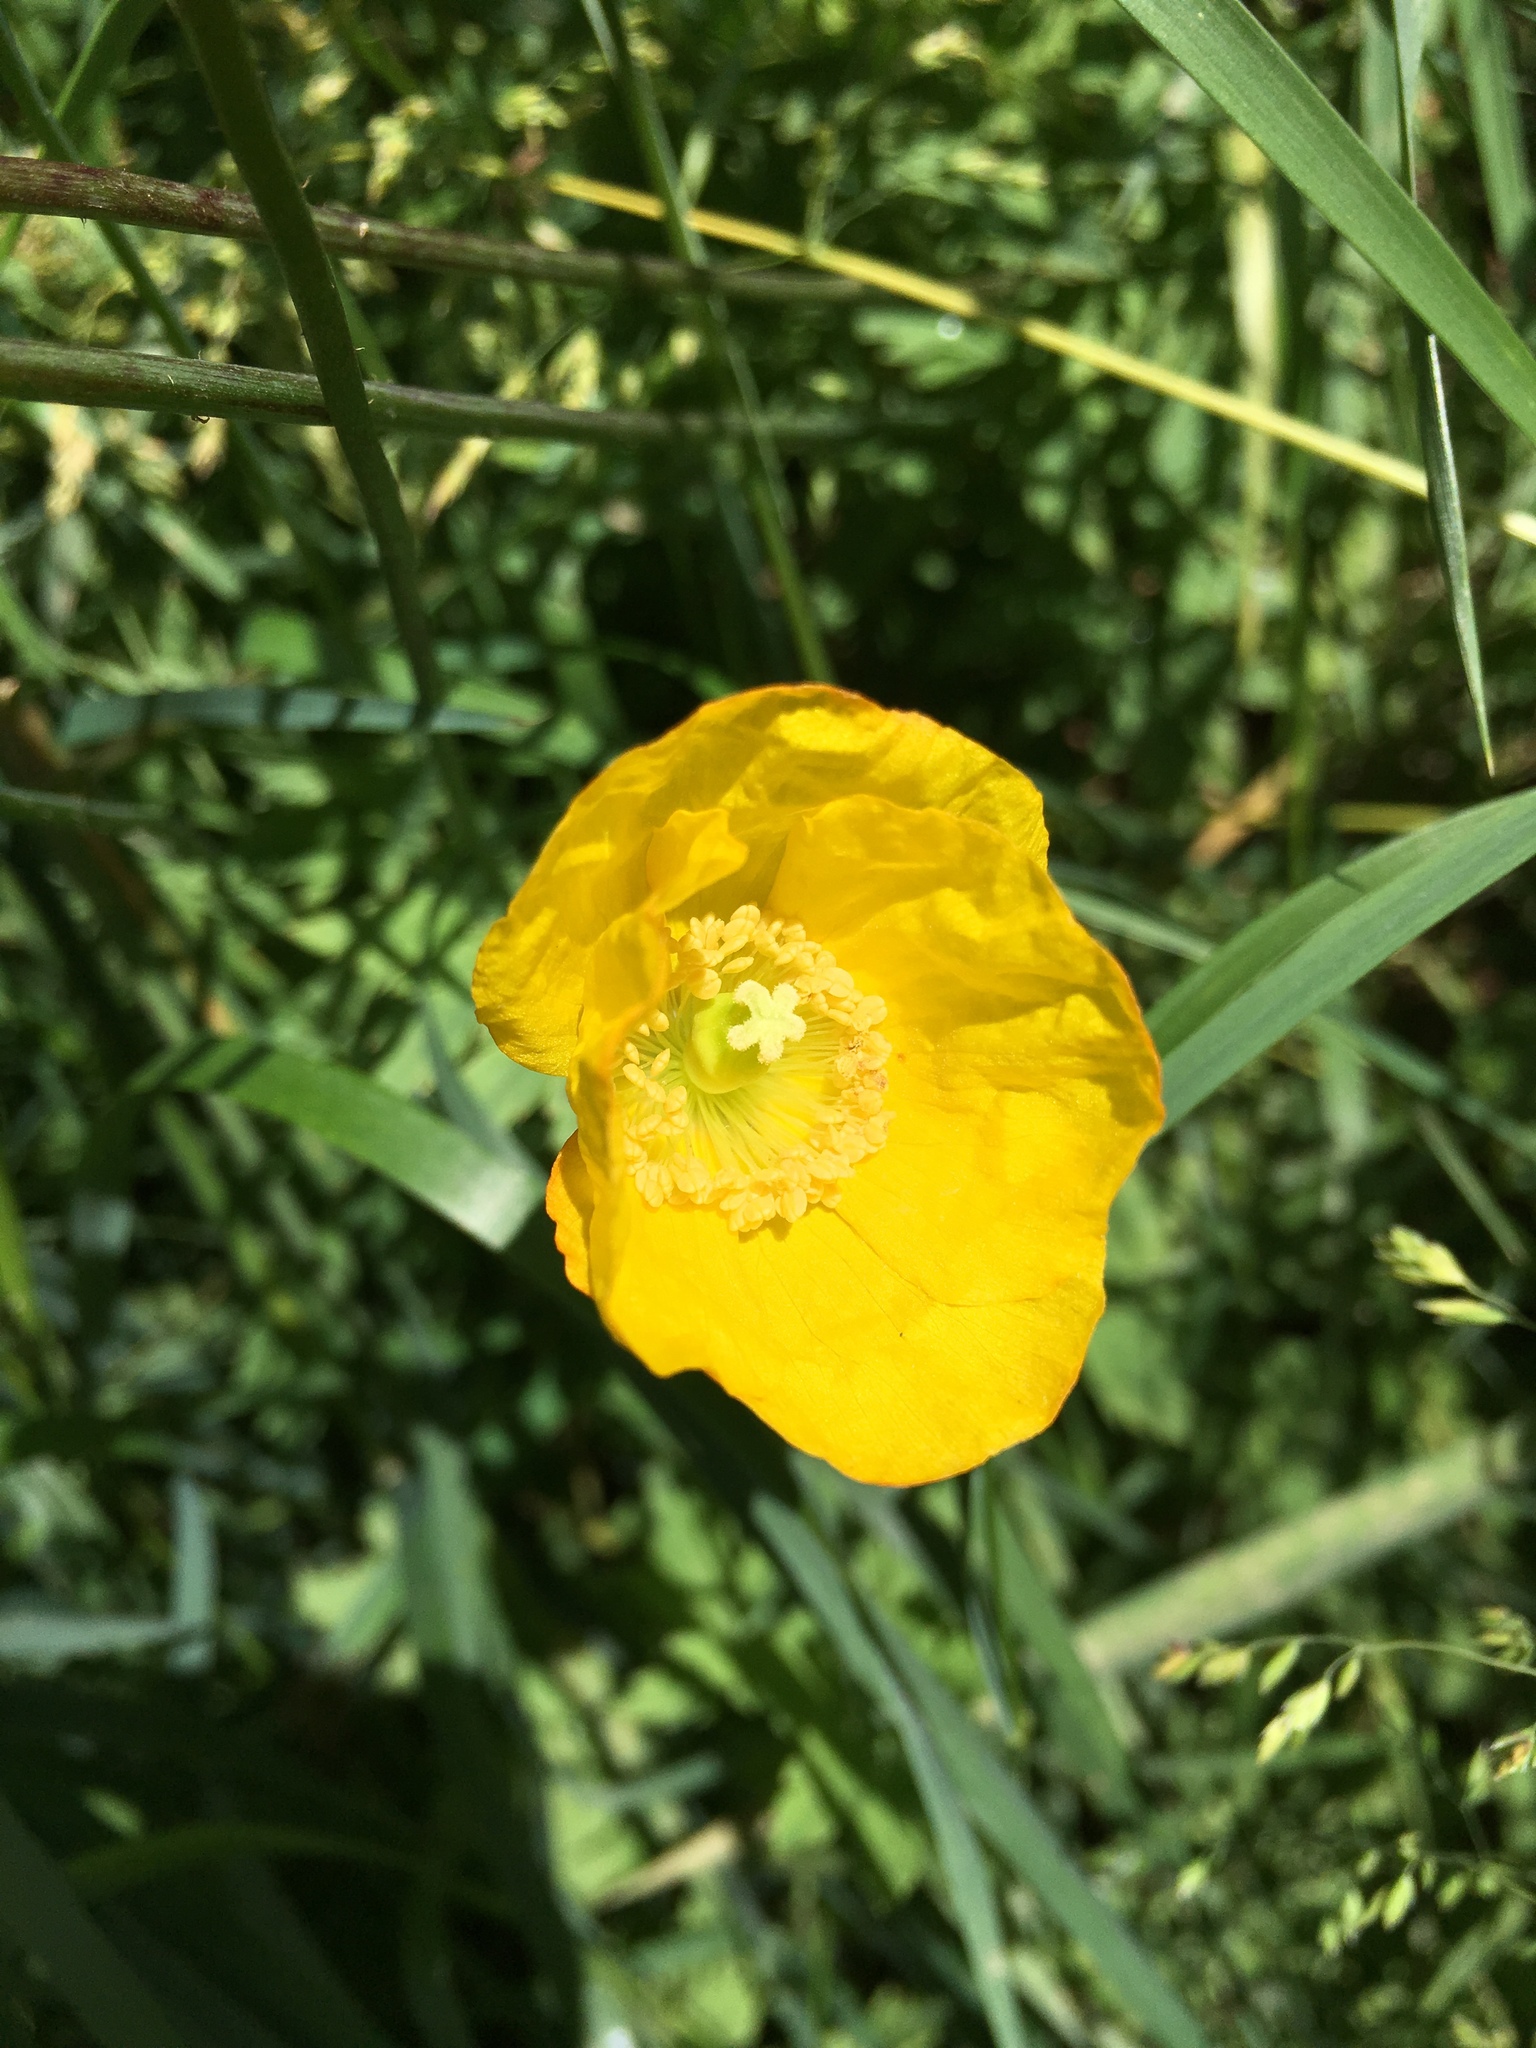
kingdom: Plantae
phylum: Tracheophyta
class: Magnoliopsida
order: Ranunculales
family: Papaveraceae
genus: Papaver
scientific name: Papaver cambricum
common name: Poppy
